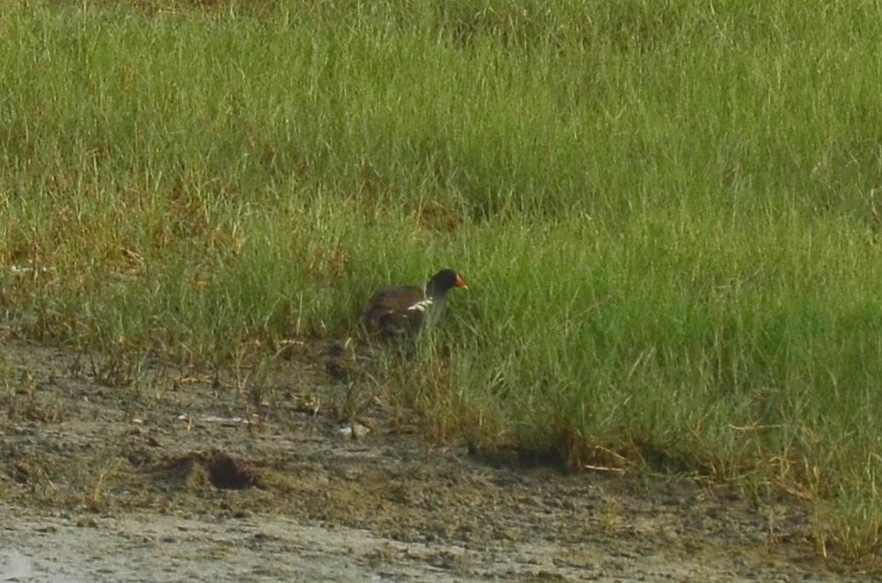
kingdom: Animalia
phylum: Chordata
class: Aves
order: Gruiformes
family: Rallidae
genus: Gallinula
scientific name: Gallinula chloropus
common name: Common moorhen
